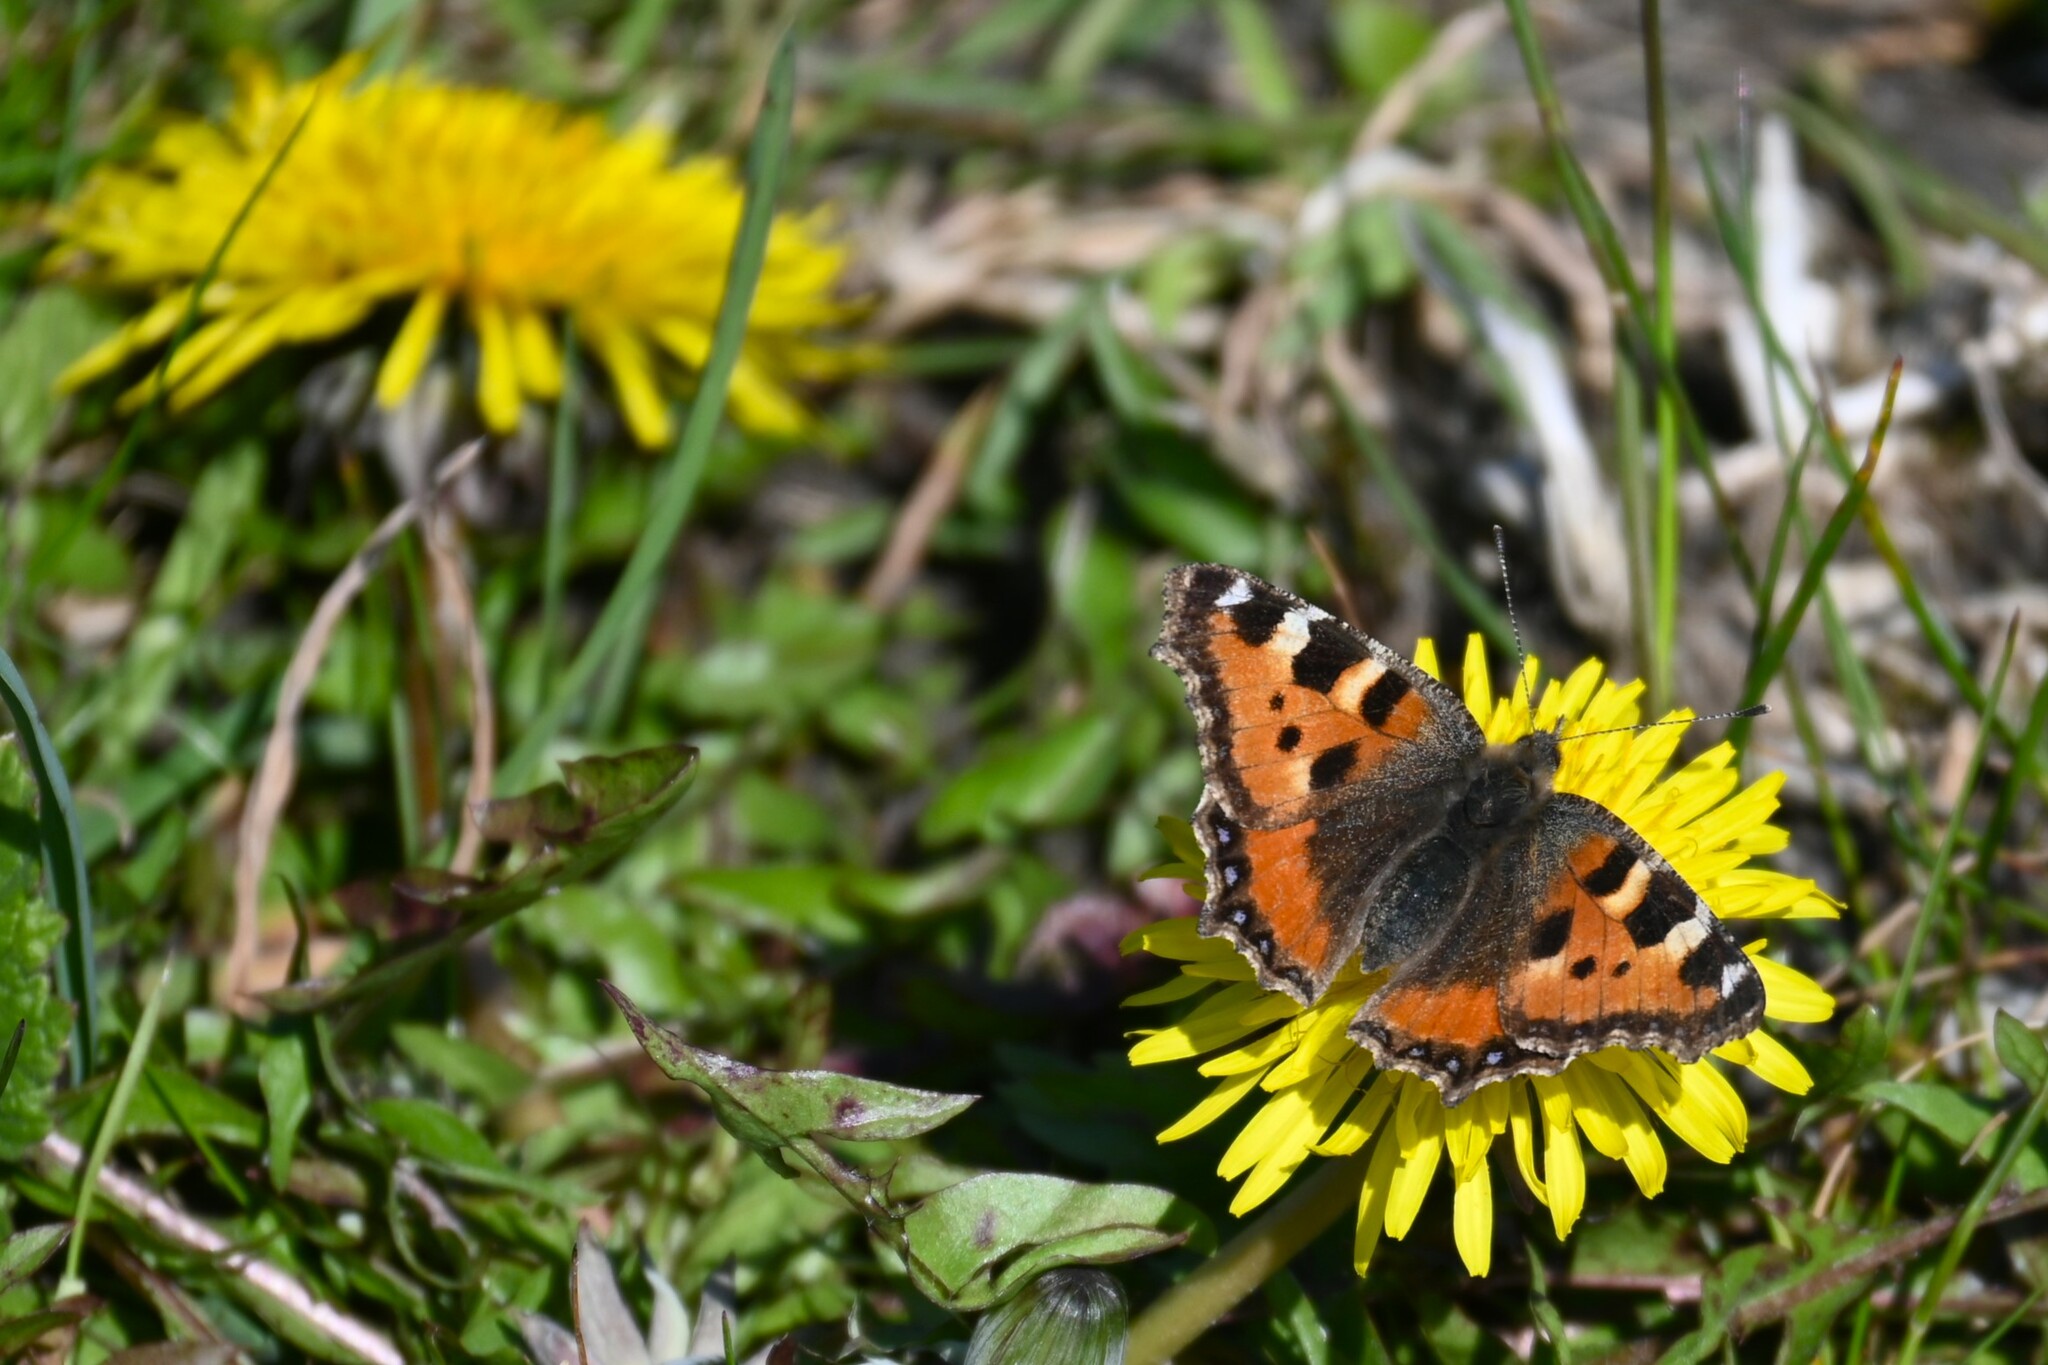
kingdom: Animalia
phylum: Arthropoda
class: Insecta
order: Lepidoptera
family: Nymphalidae
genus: Aglais
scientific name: Aglais urticae
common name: Small tortoiseshell
